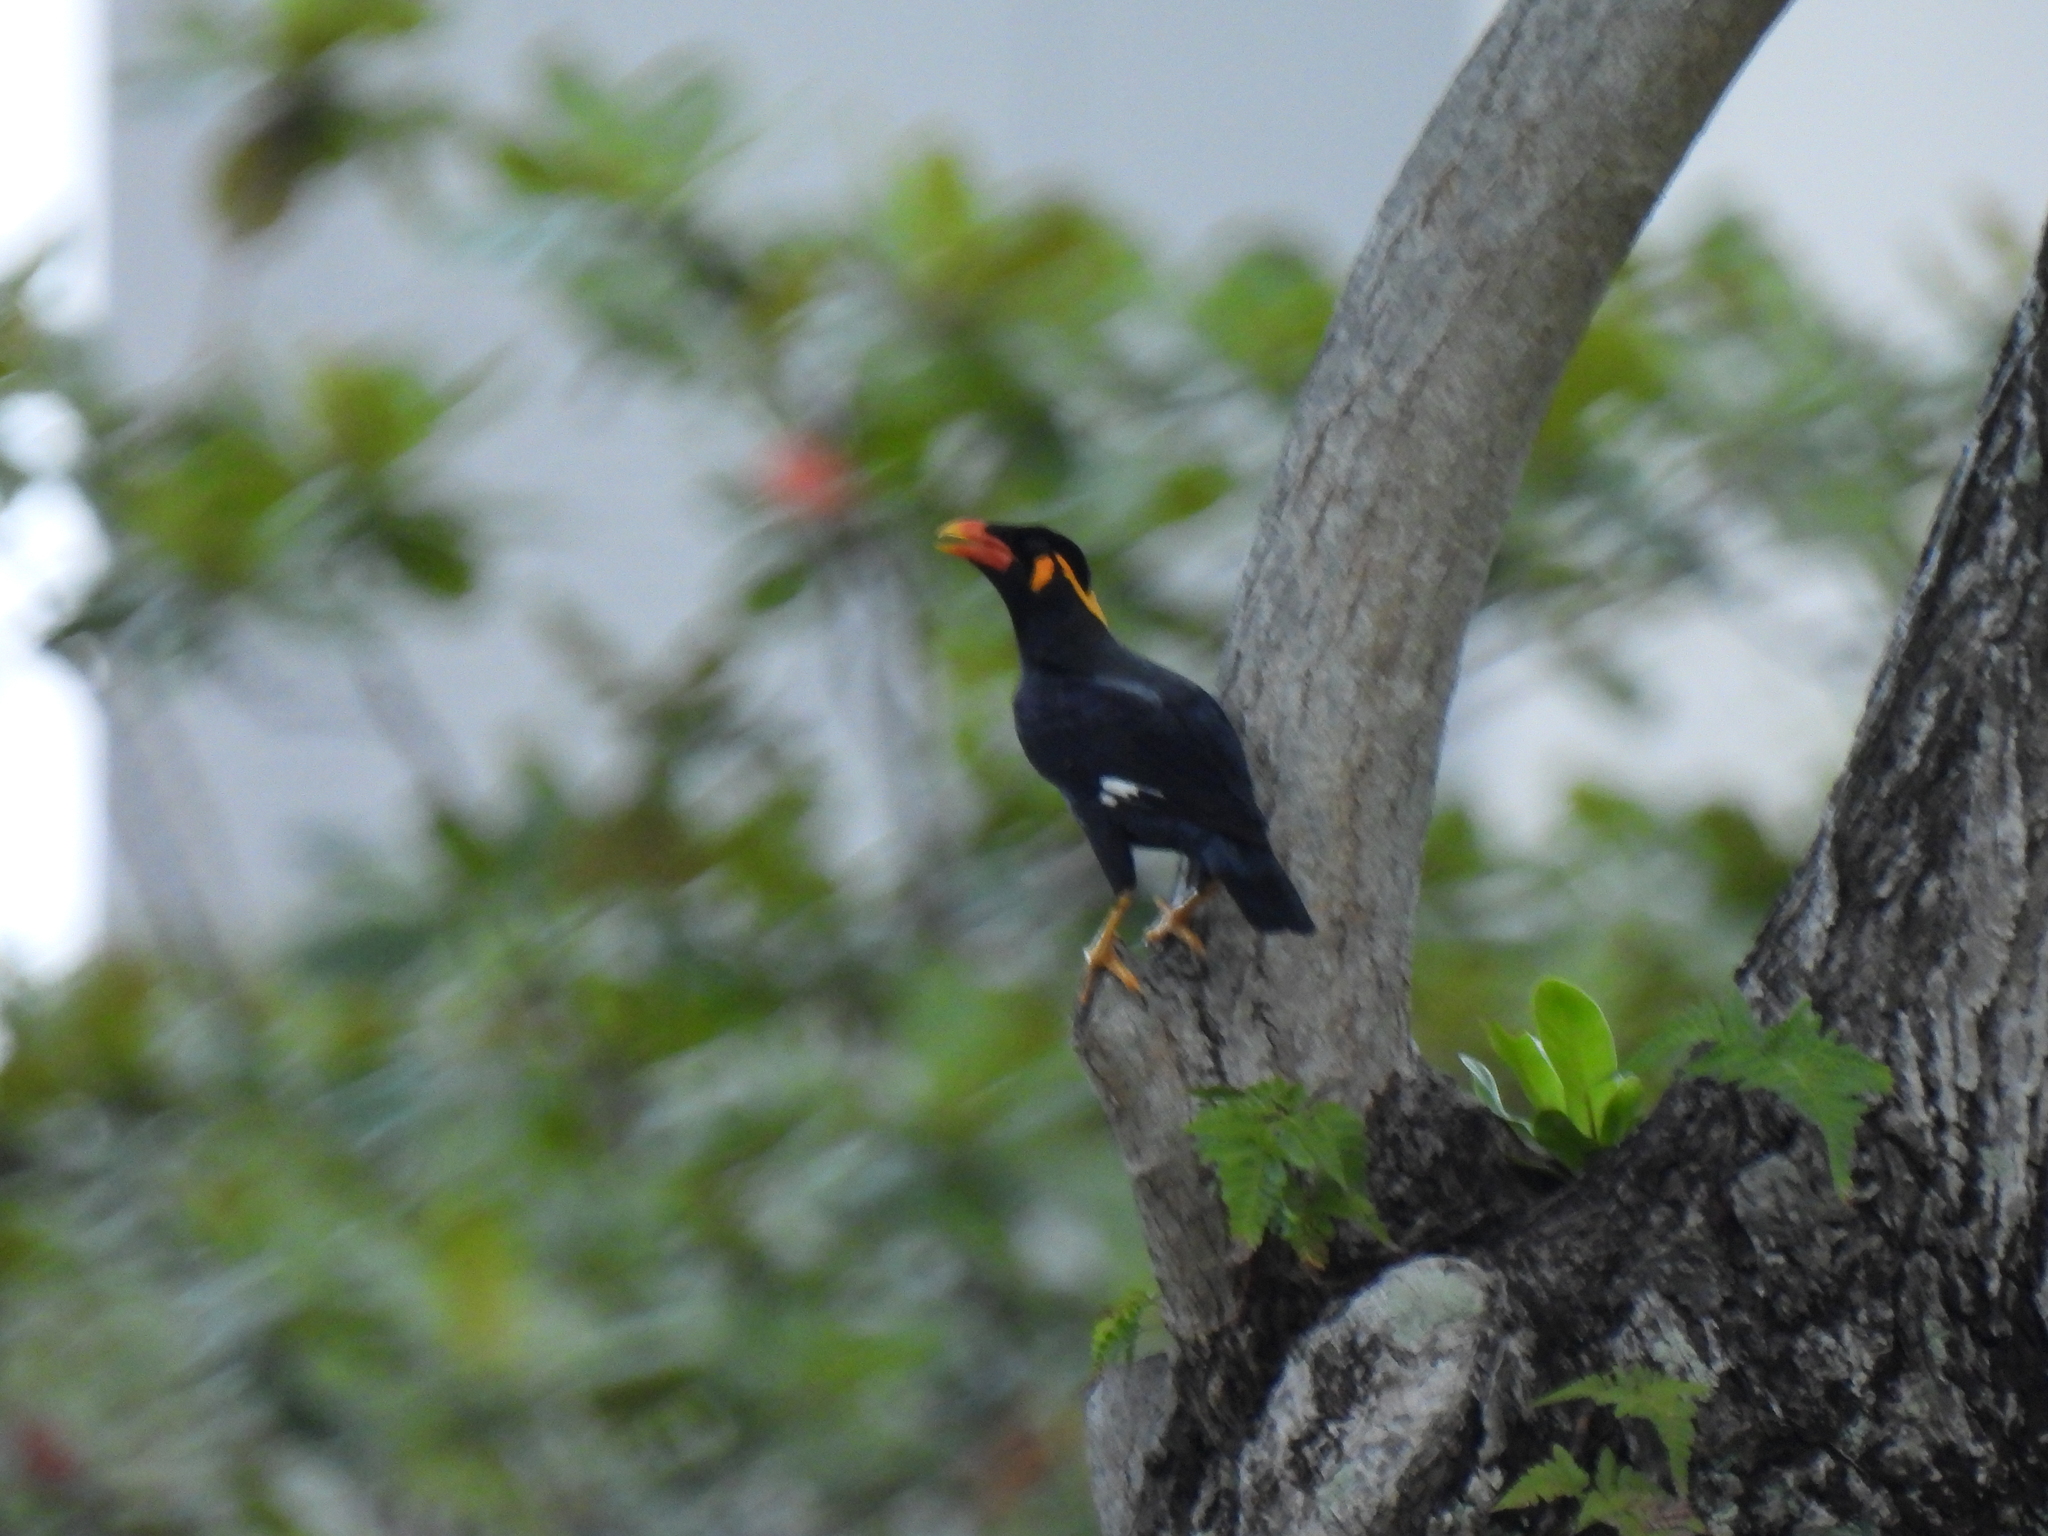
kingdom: Animalia
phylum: Chordata
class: Aves
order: Passeriformes
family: Sturnidae
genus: Gracula
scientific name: Gracula religiosa
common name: Common hill myna
